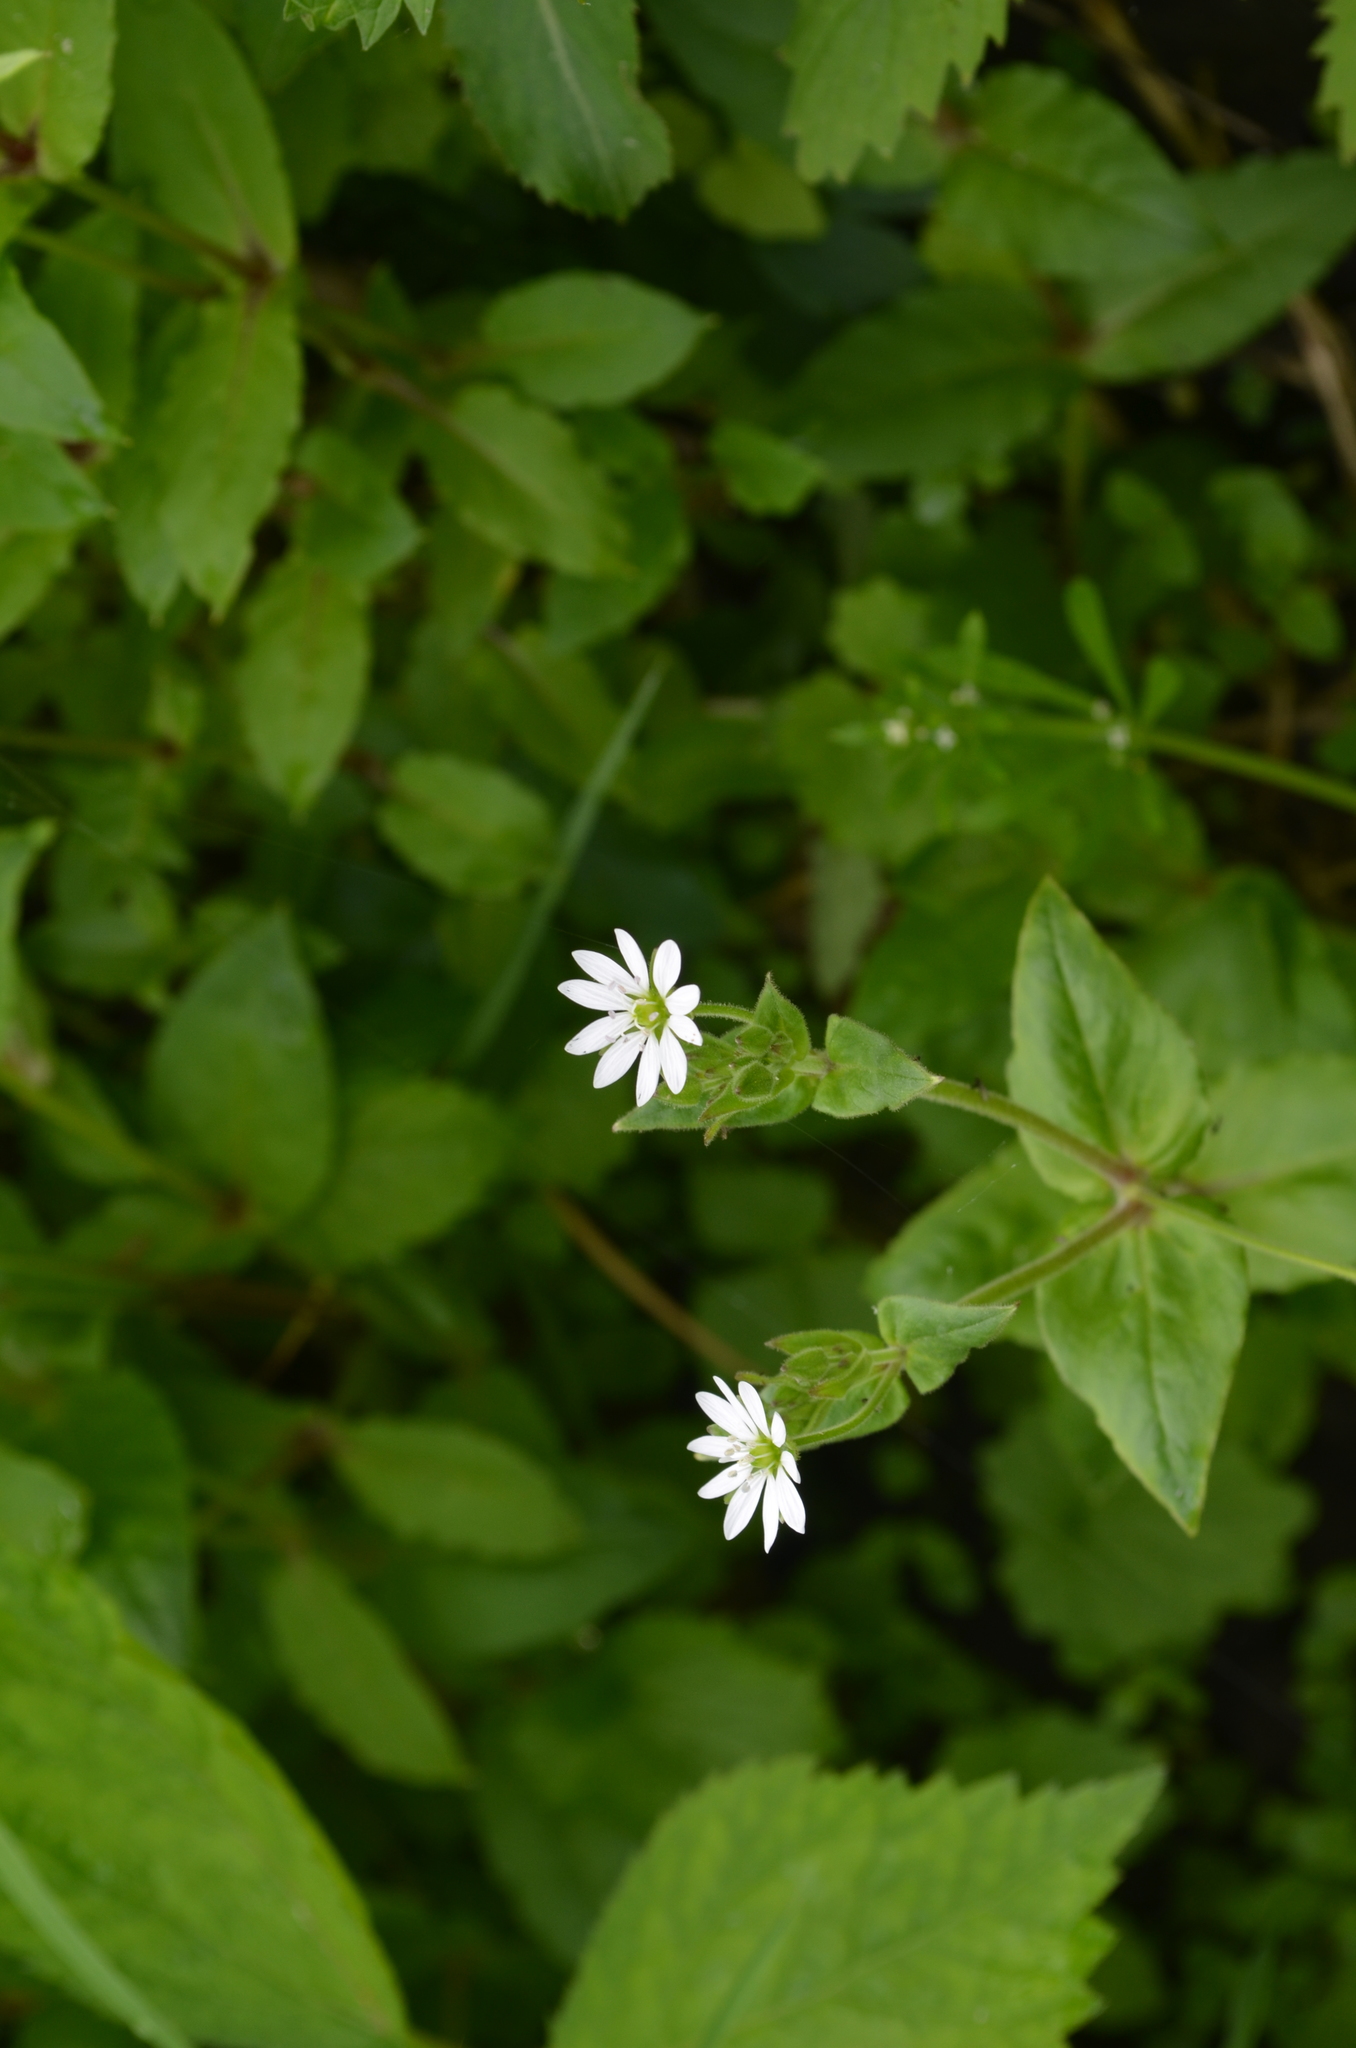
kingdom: Plantae
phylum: Tracheophyta
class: Magnoliopsida
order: Caryophyllales
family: Caryophyllaceae
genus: Stellaria
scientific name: Stellaria aquatica
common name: Water chickweed
